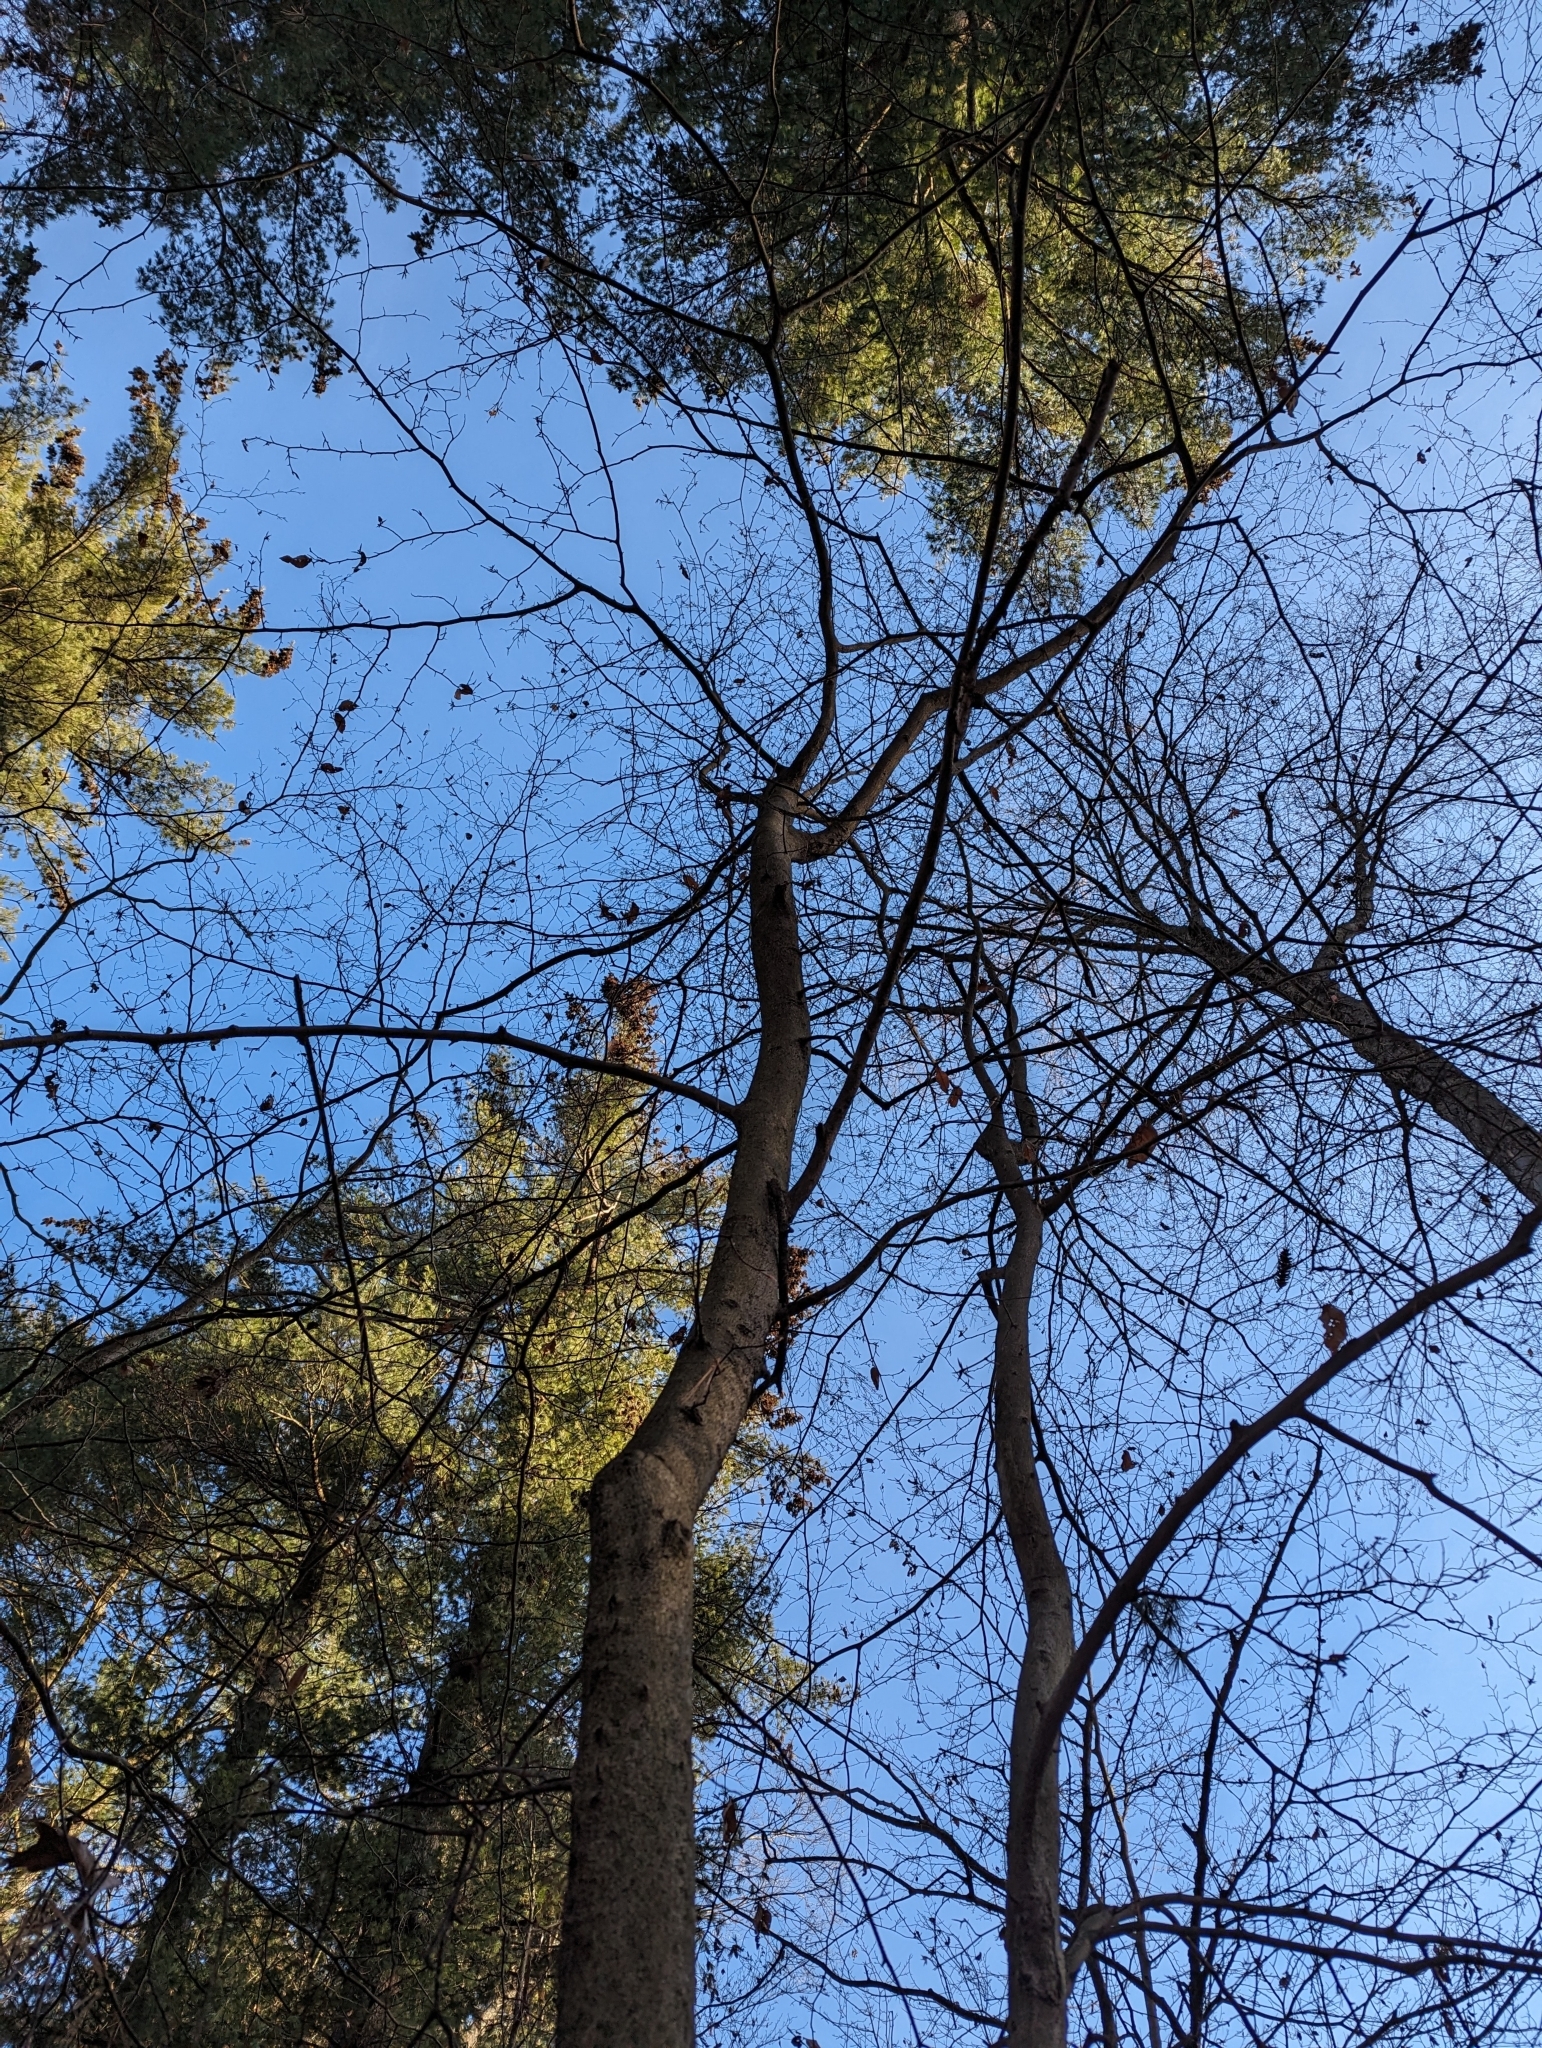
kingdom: Plantae
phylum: Tracheophyta
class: Magnoliopsida
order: Fagales
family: Fagaceae
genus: Fagus
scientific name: Fagus grandifolia
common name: American beech
